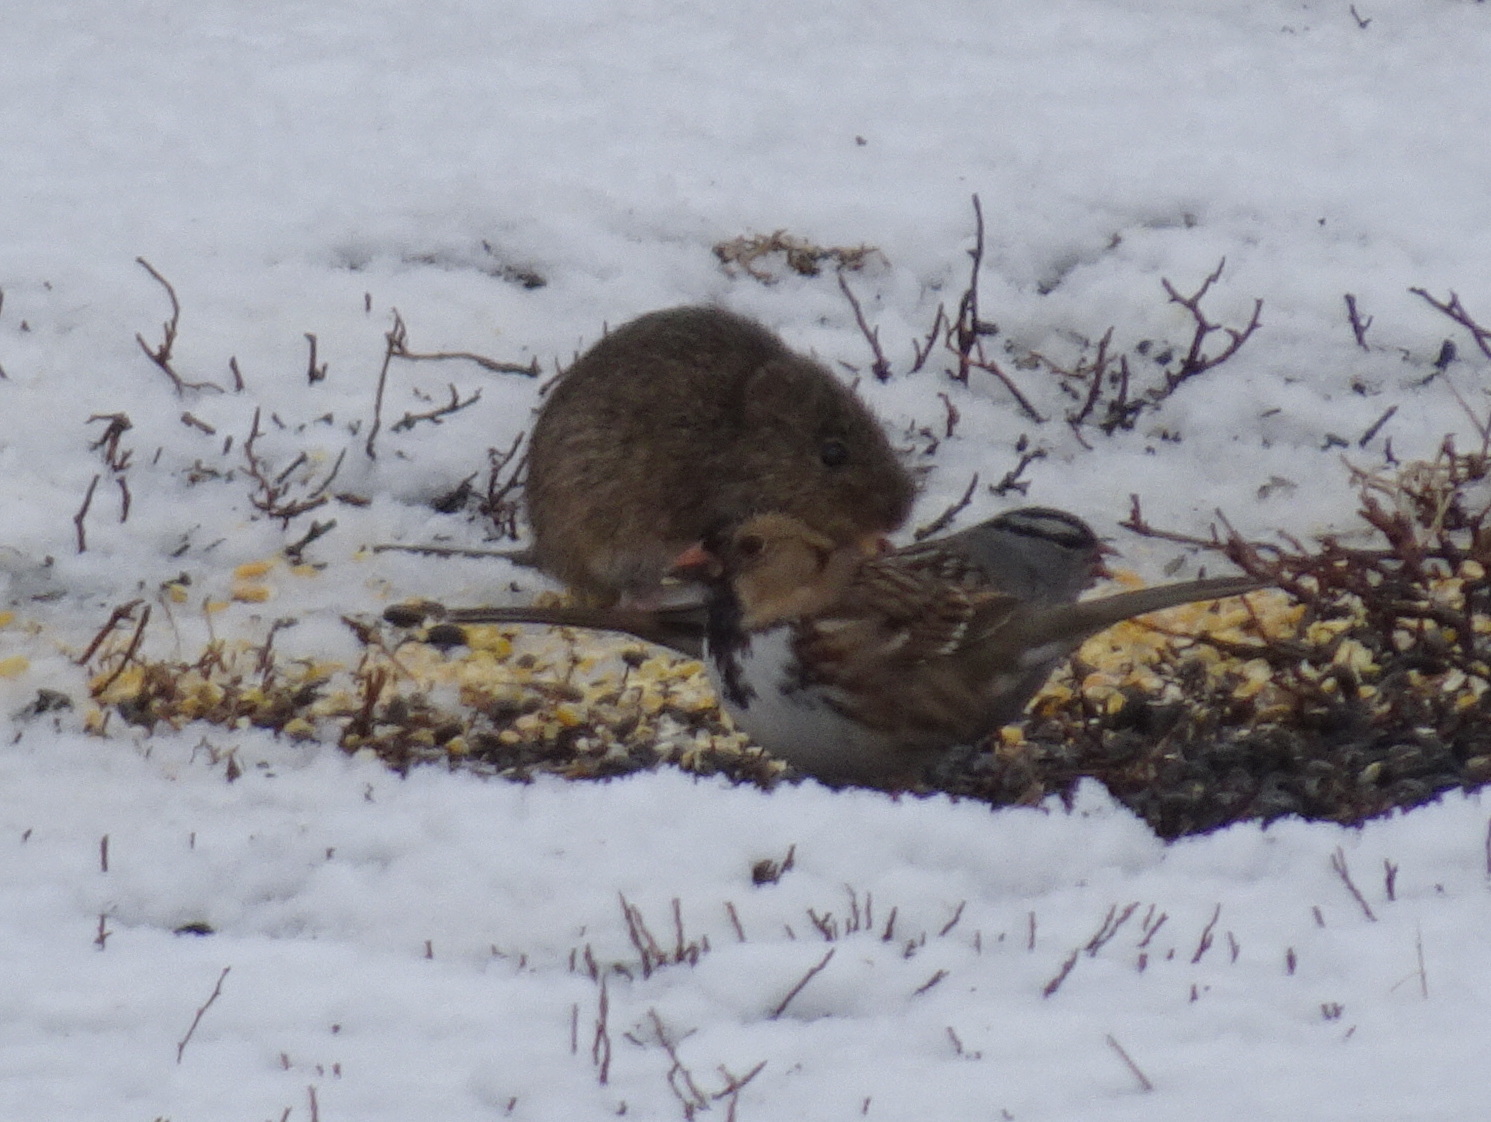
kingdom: Animalia
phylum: Chordata
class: Aves
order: Passeriformes
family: Passerellidae
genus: Zonotrichia
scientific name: Zonotrichia querula
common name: Harris's sparrow
